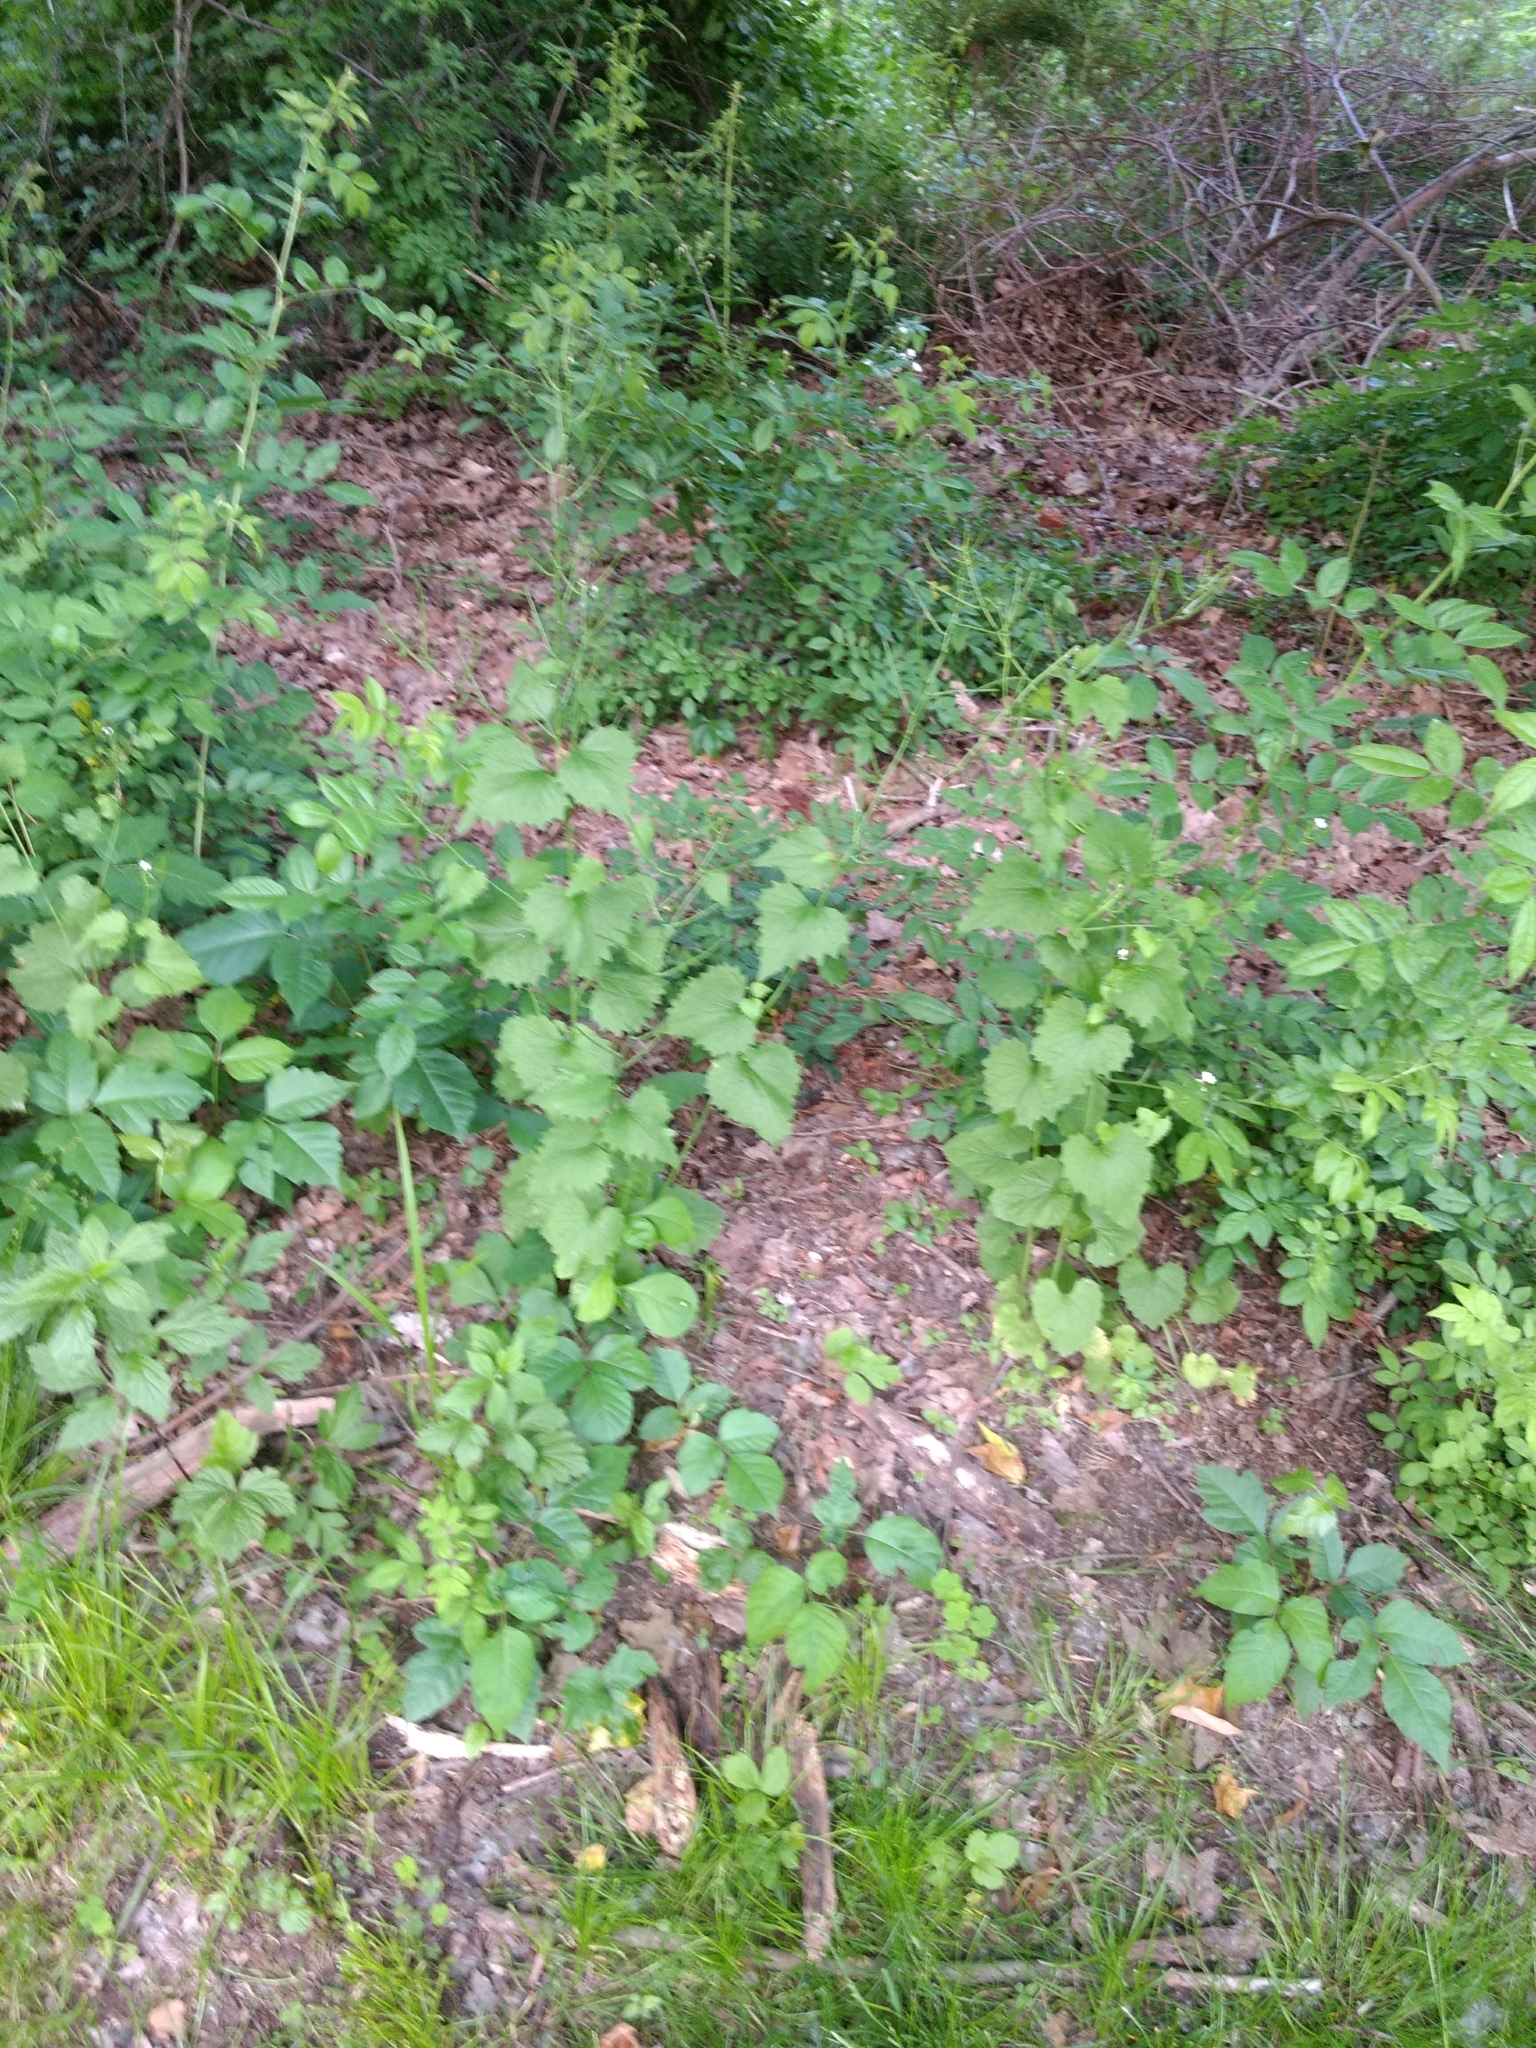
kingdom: Plantae
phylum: Tracheophyta
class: Magnoliopsida
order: Brassicales
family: Brassicaceae
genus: Alliaria
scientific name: Alliaria petiolata
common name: Garlic mustard
